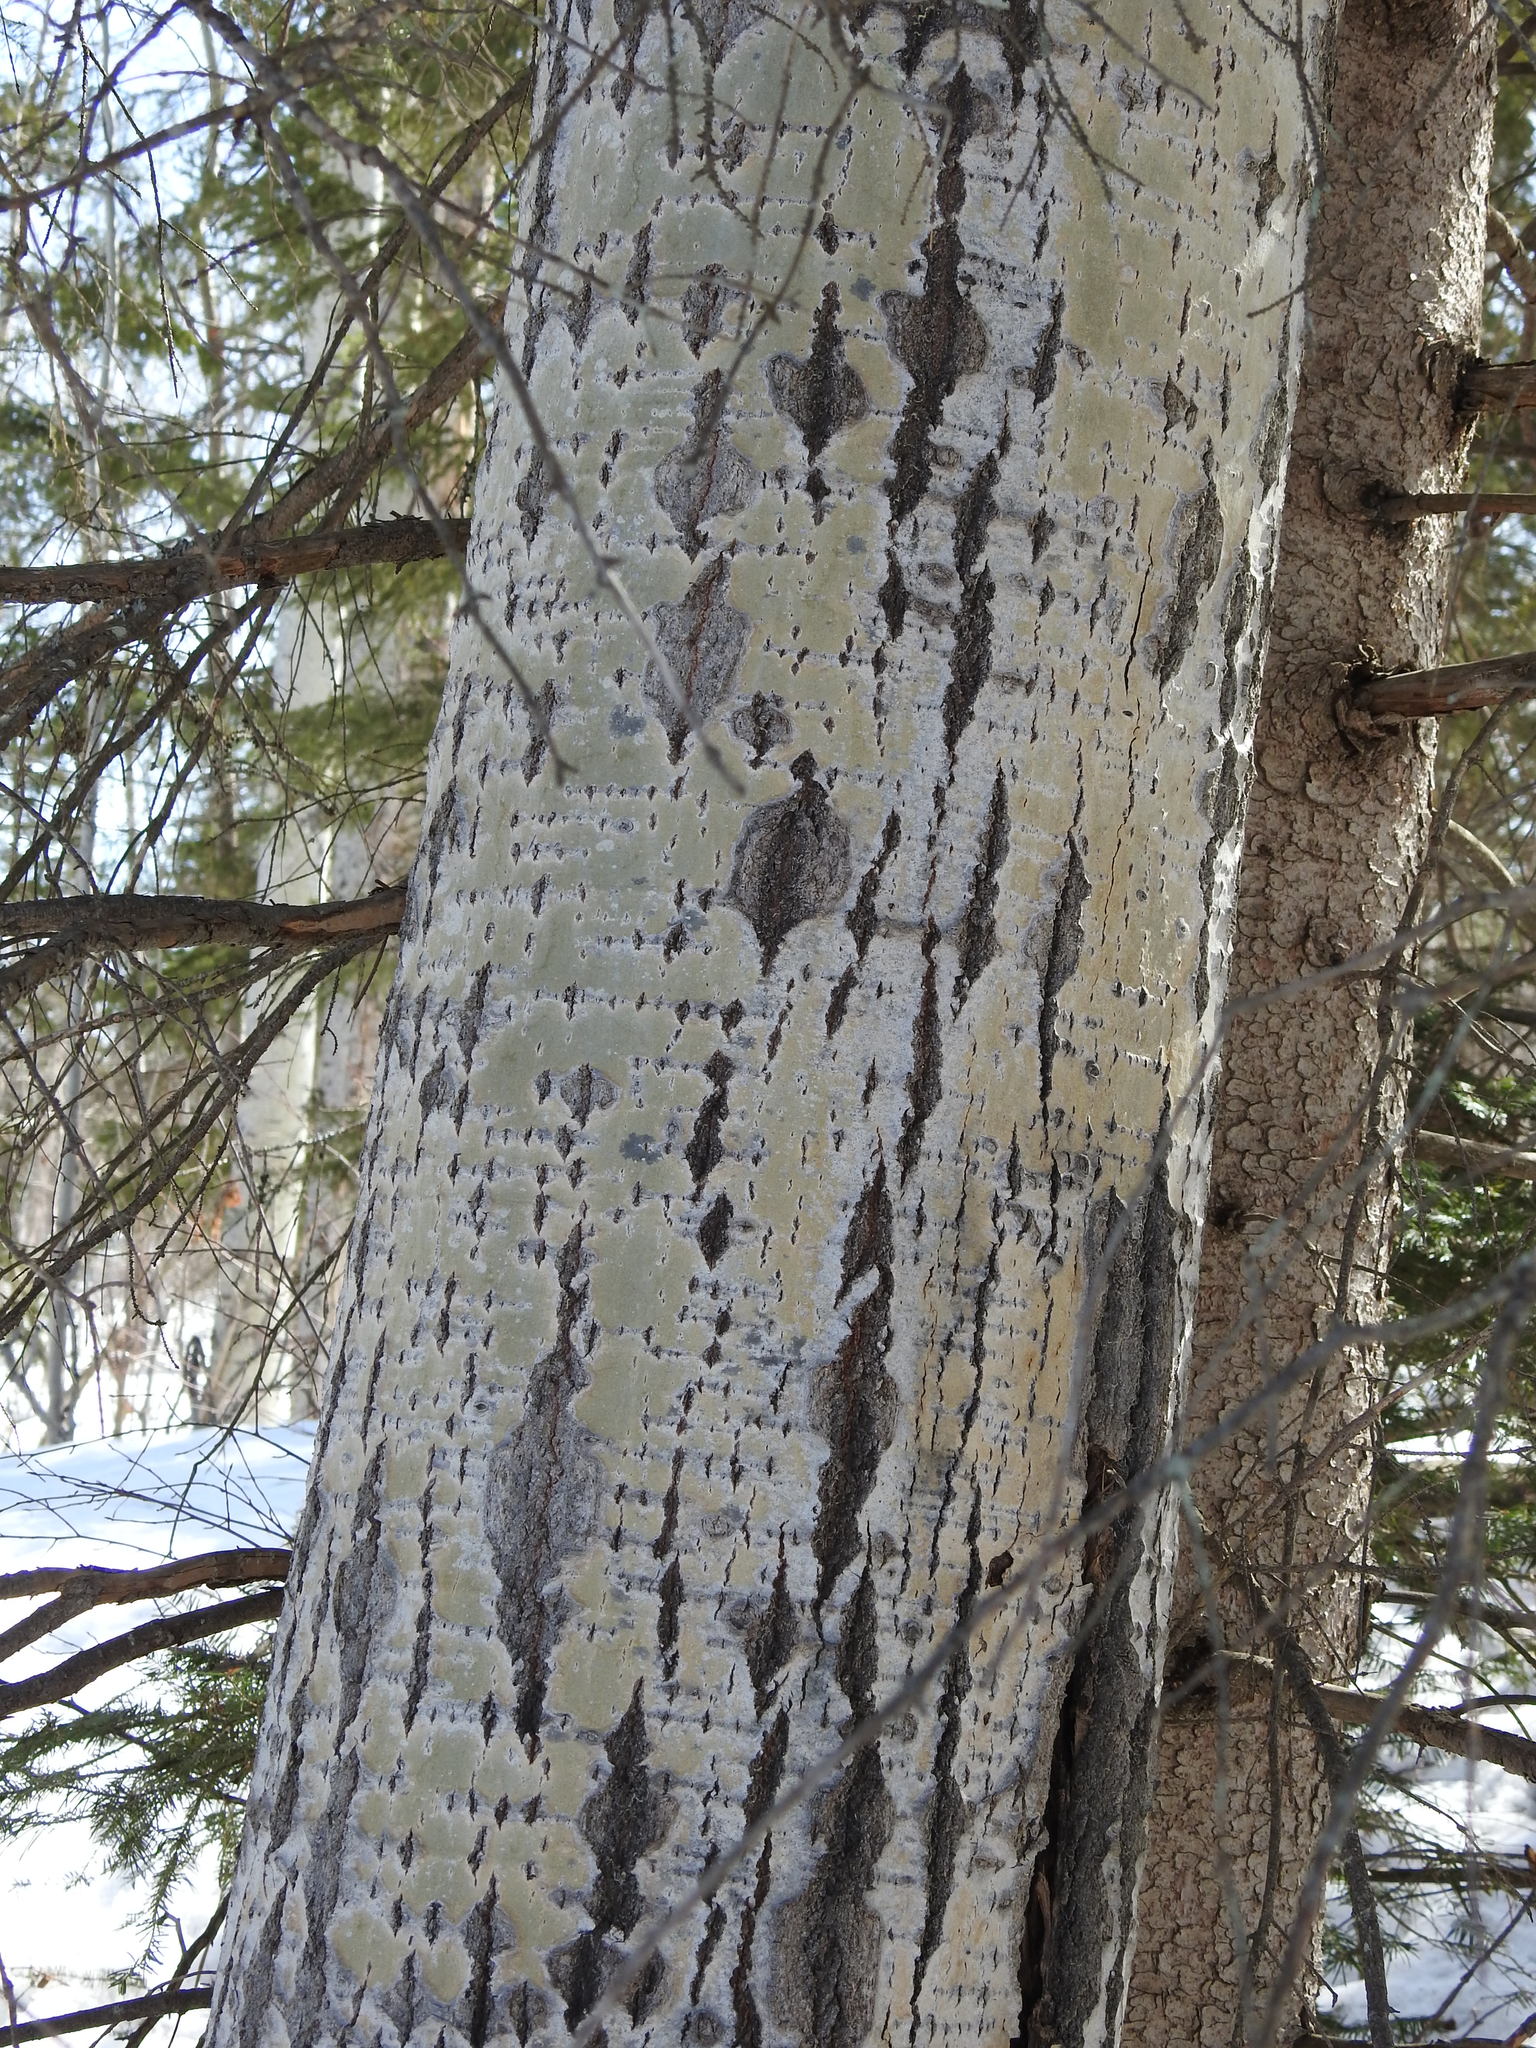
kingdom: Plantae
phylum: Tracheophyta
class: Magnoliopsida
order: Malpighiales
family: Salicaceae
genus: Populus
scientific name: Populus tremuloides
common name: Quaking aspen
